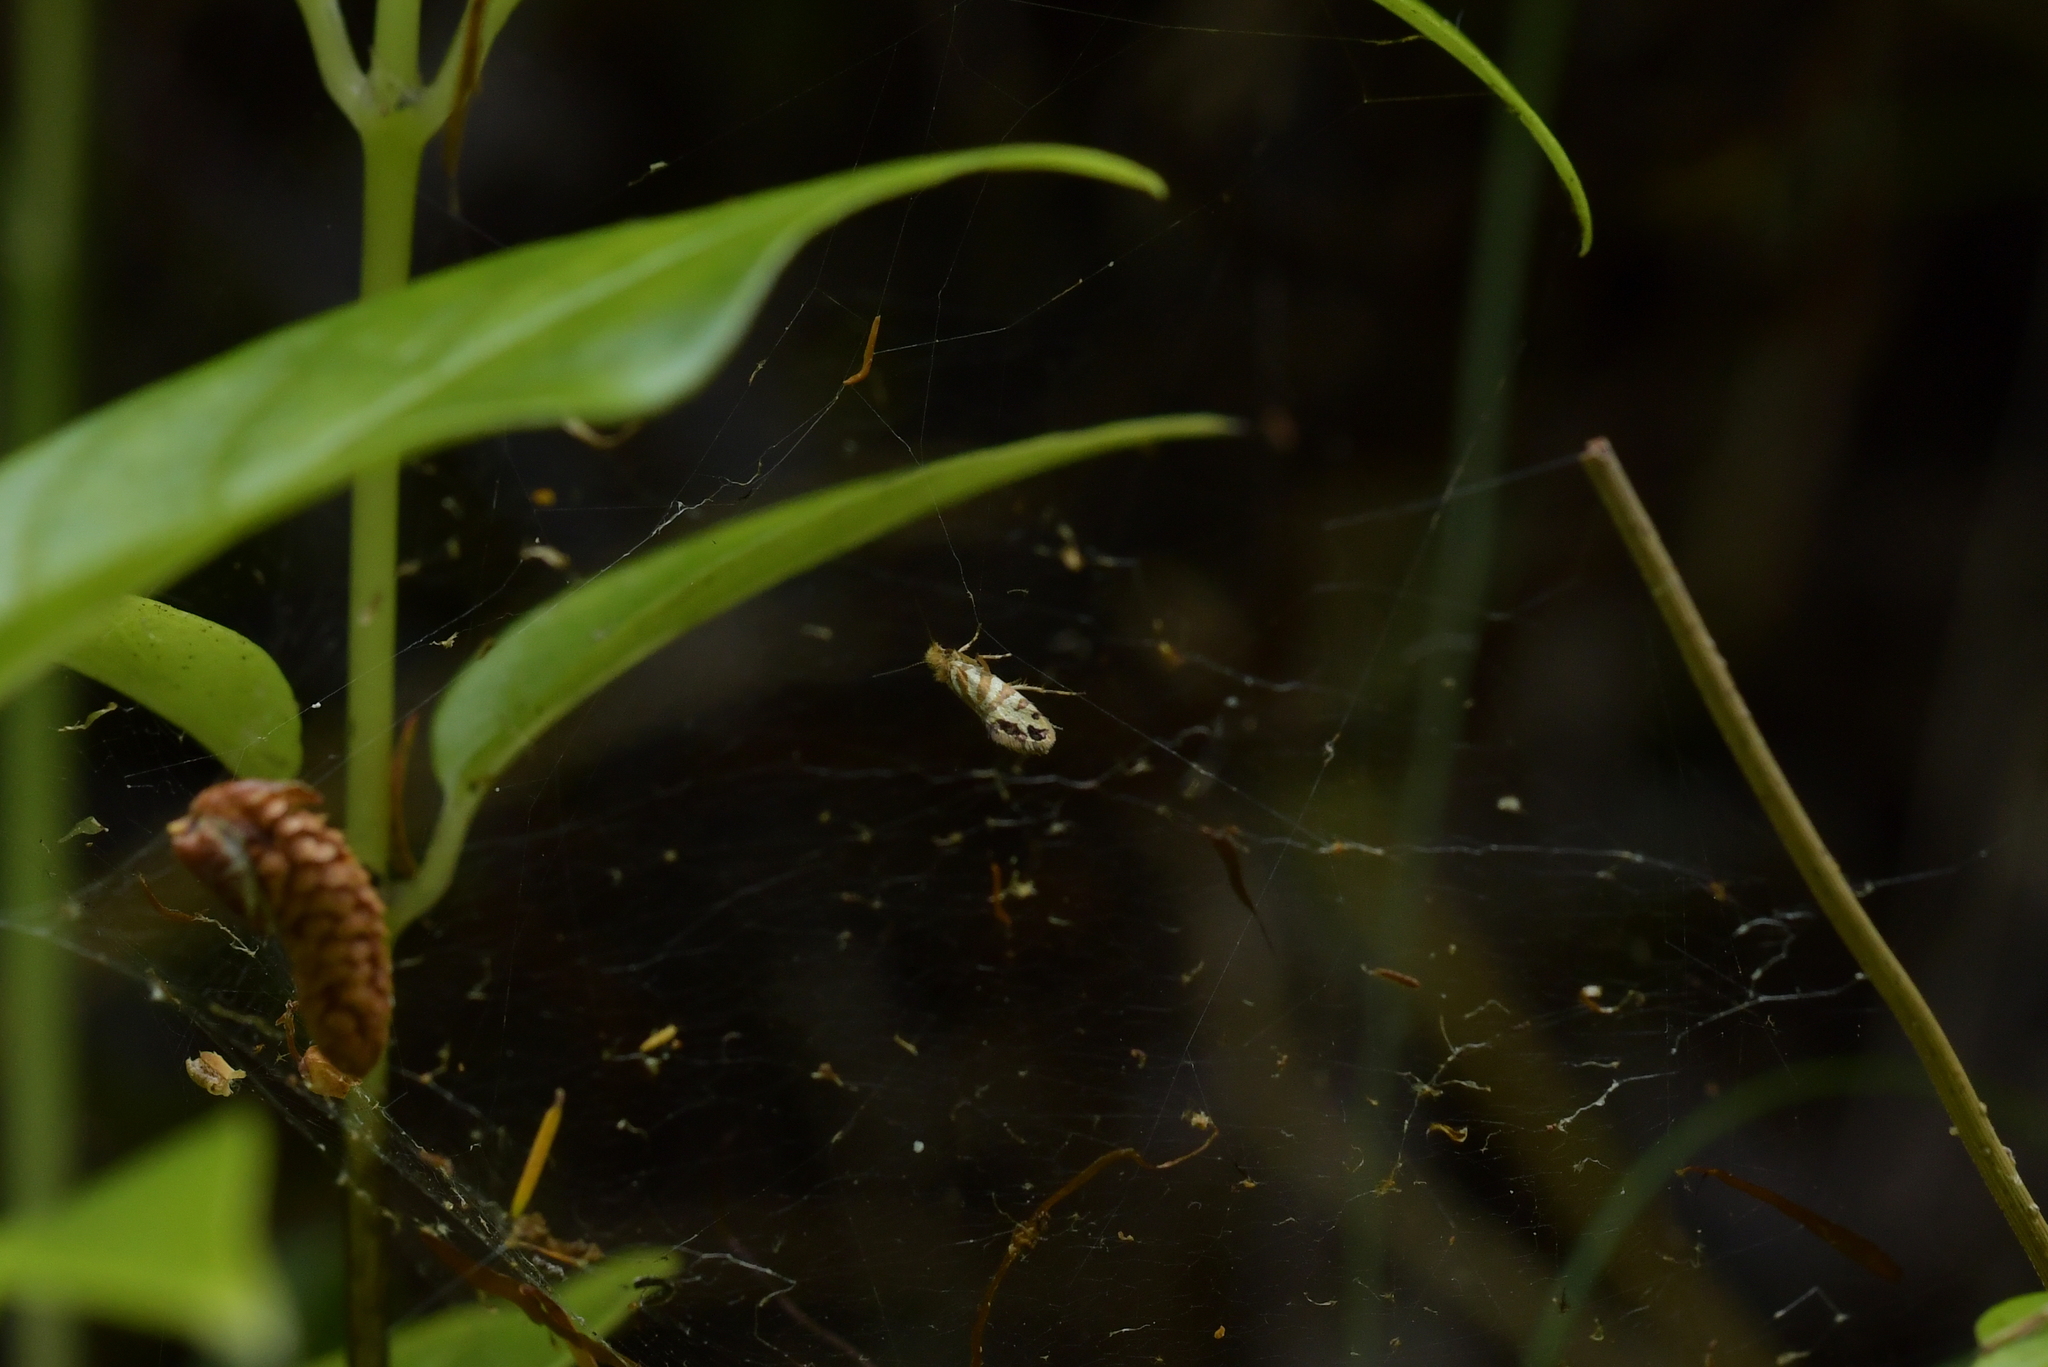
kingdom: Animalia
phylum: Arthropoda
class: Insecta
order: Lepidoptera
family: Micropterigidae
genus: Sabatinca
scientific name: Sabatinca doroxena
